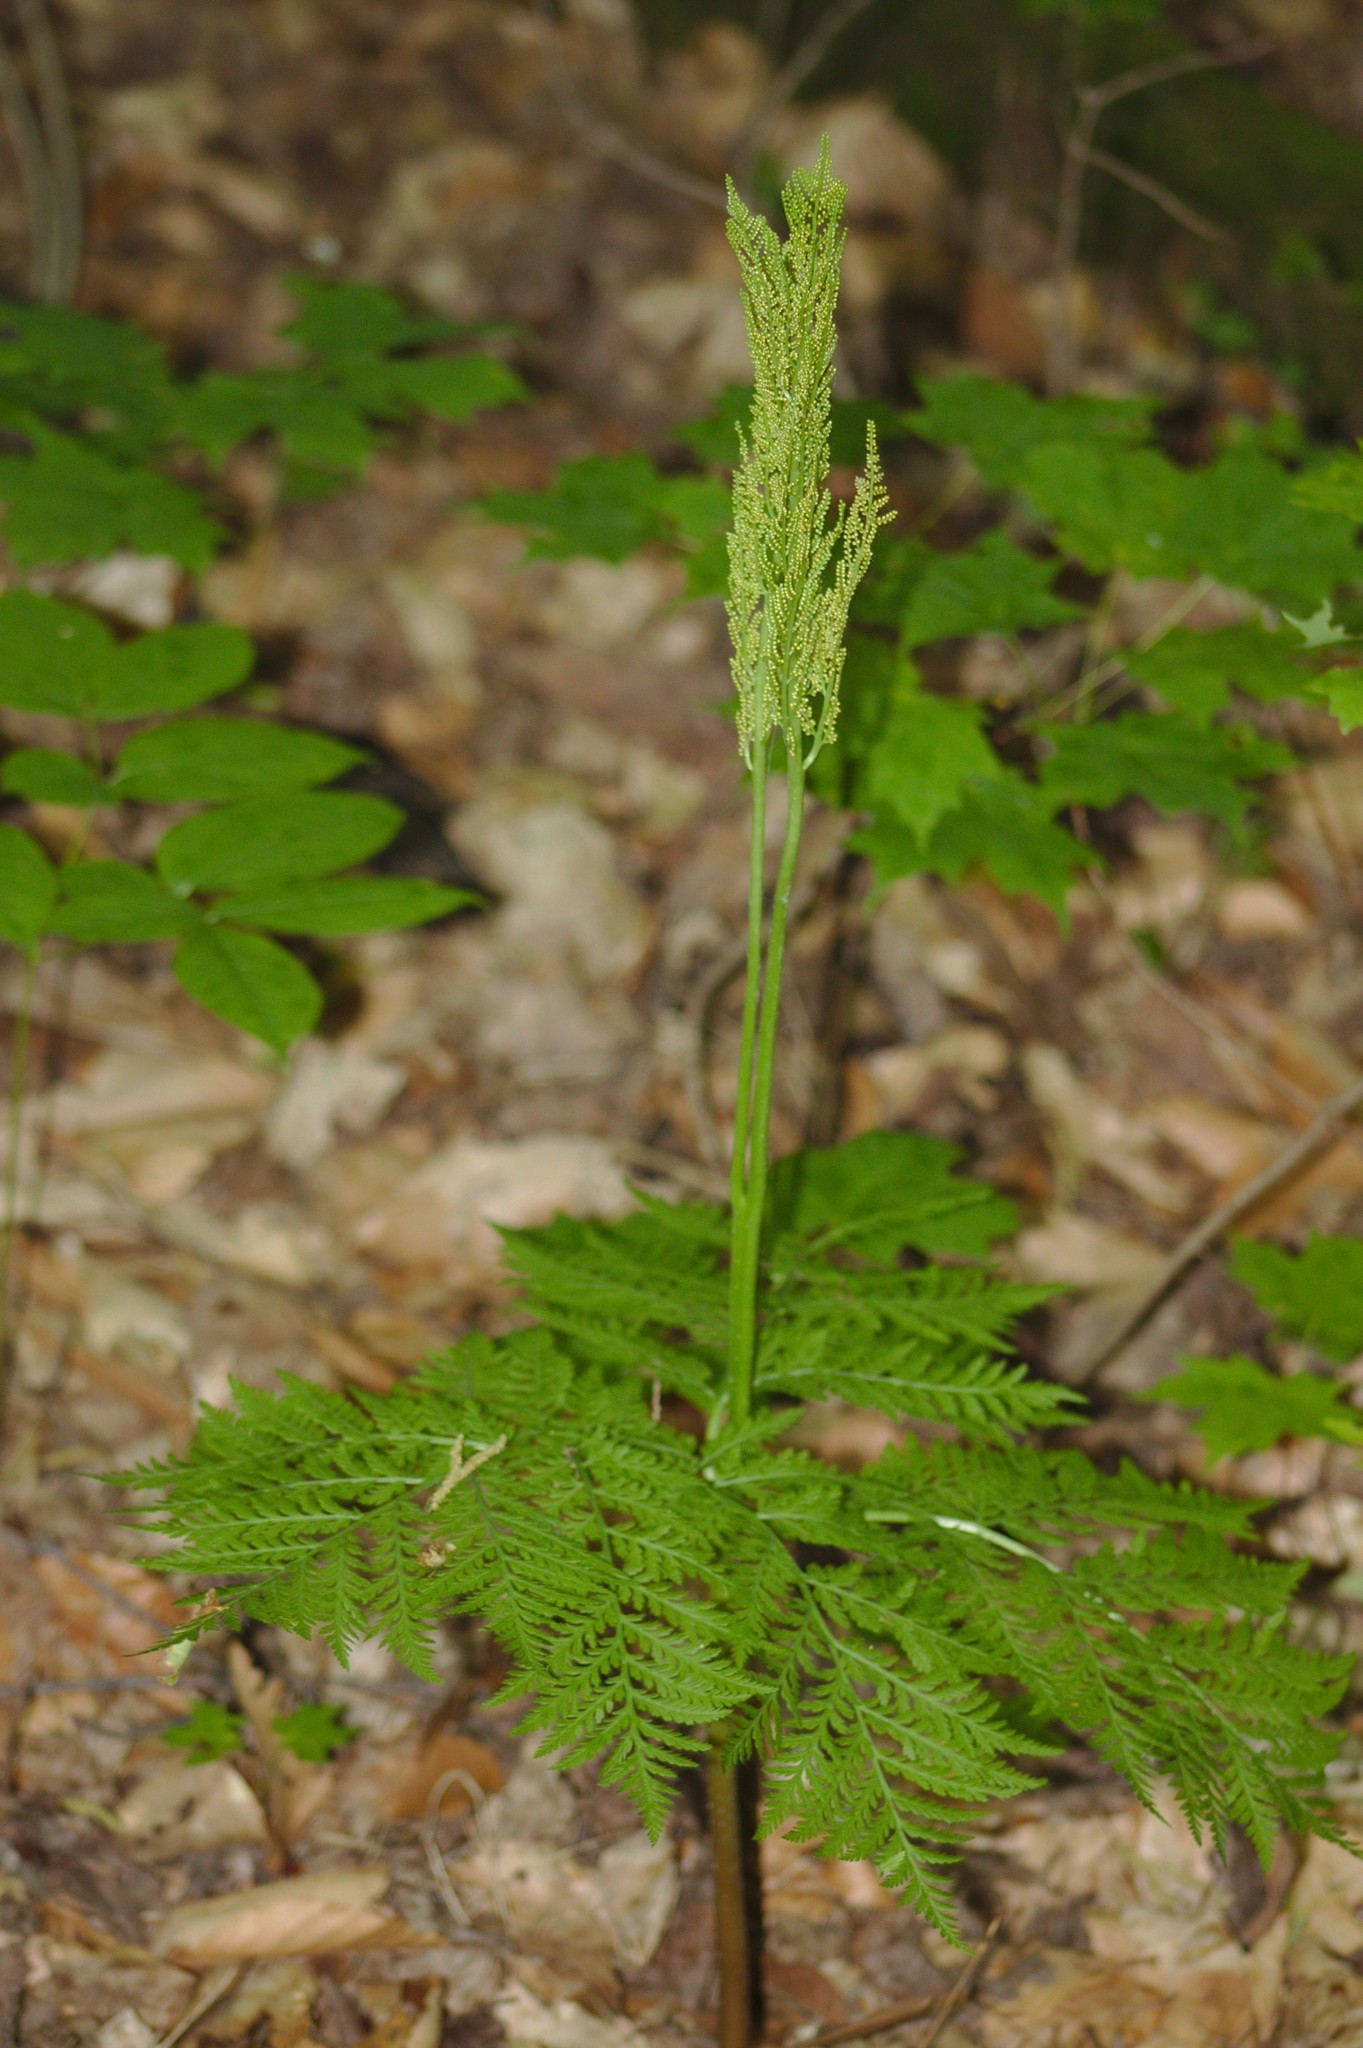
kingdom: Plantae
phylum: Tracheophyta
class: Polypodiopsida
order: Ophioglossales
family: Ophioglossaceae
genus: Botrypus
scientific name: Botrypus virginianus
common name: Common grapefern
